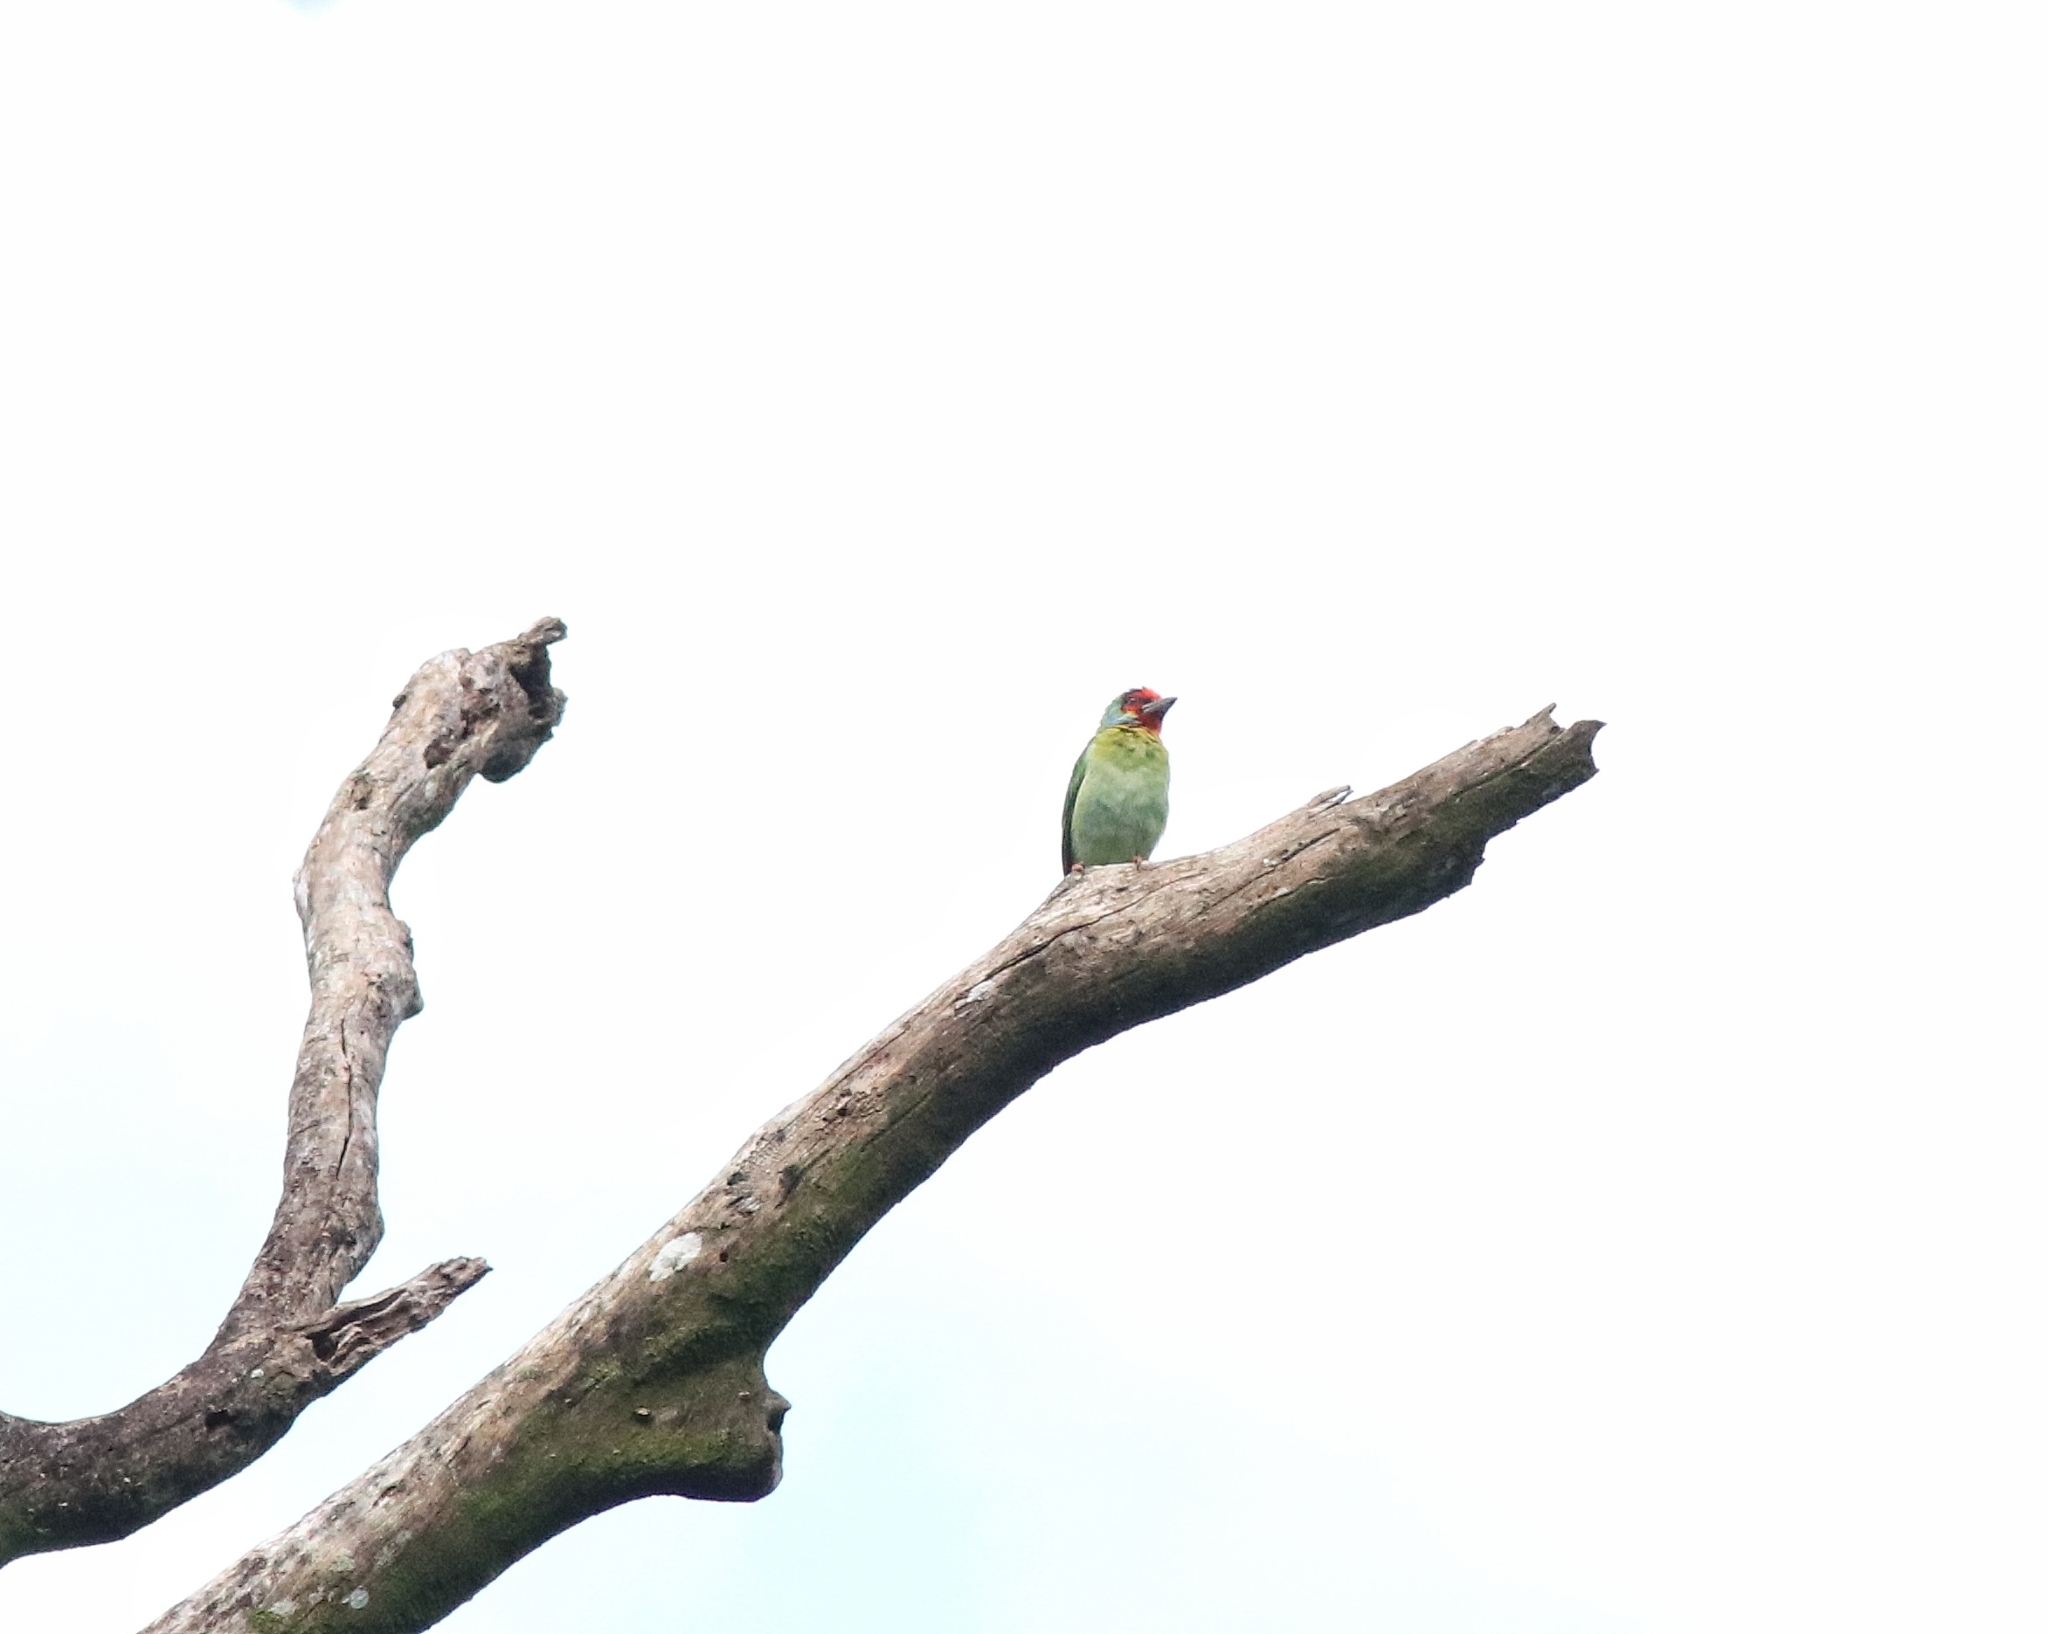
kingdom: Animalia
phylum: Chordata
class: Aves
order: Piciformes
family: Megalaimidae
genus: Psilopogon
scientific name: Psilopogon malabaricus
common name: Malabar barbet
